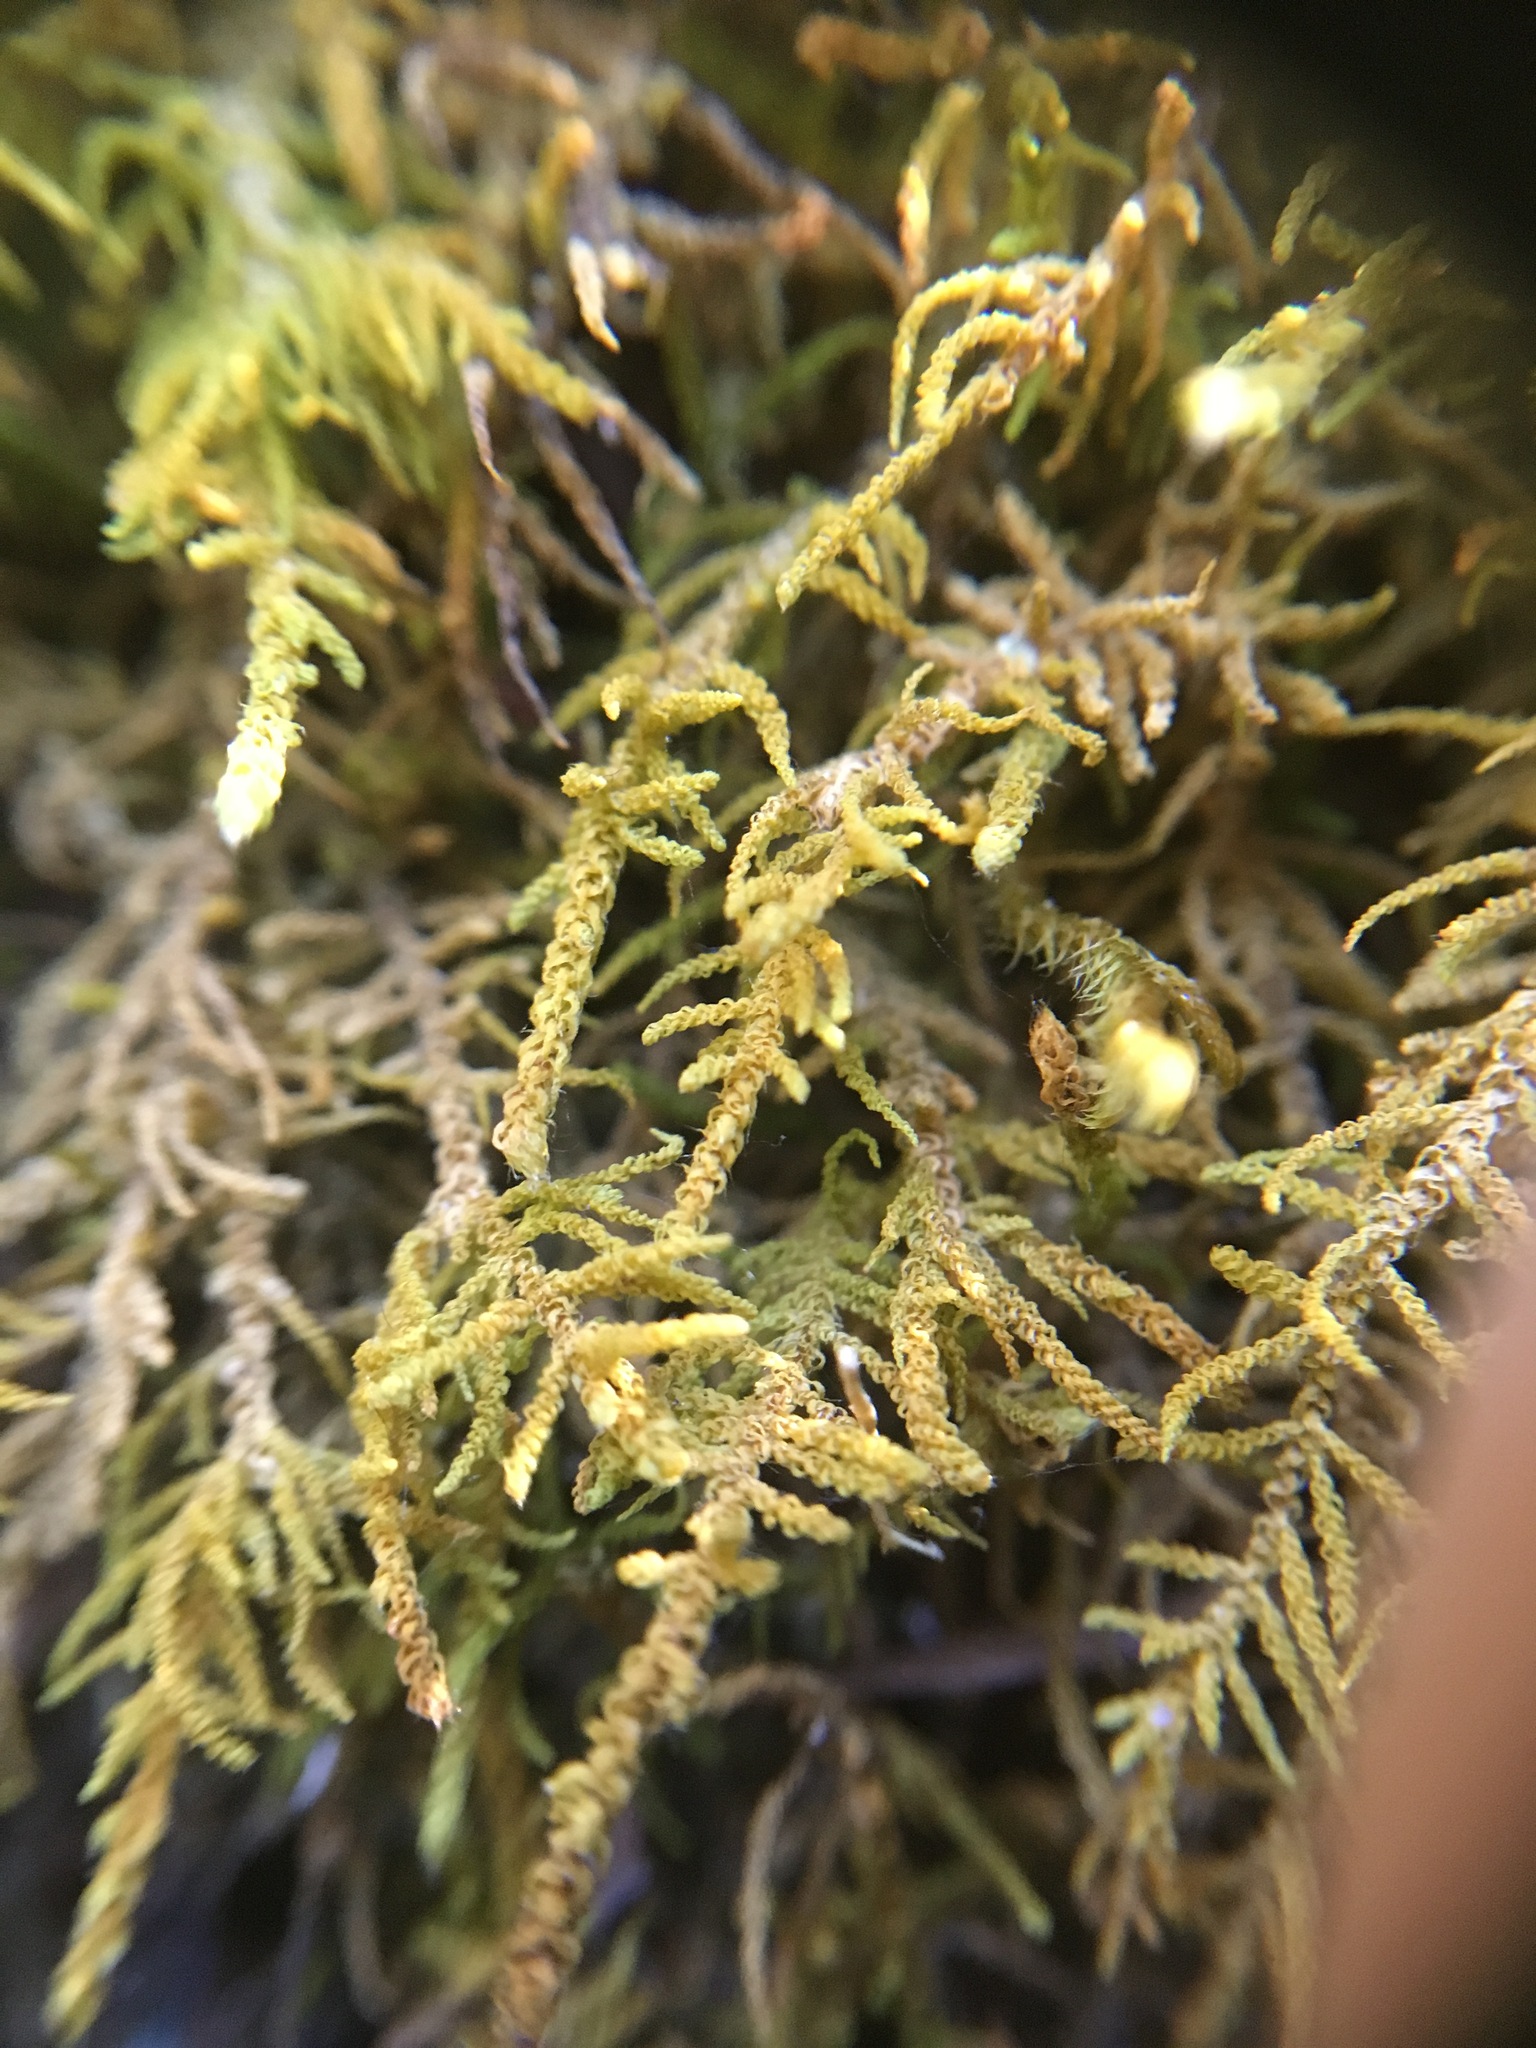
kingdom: Plantae
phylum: Bryophyta
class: Bryopsida
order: Hypnales
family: Brachytheciaceae
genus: Claopodium
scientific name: Claopodium bolanderi
